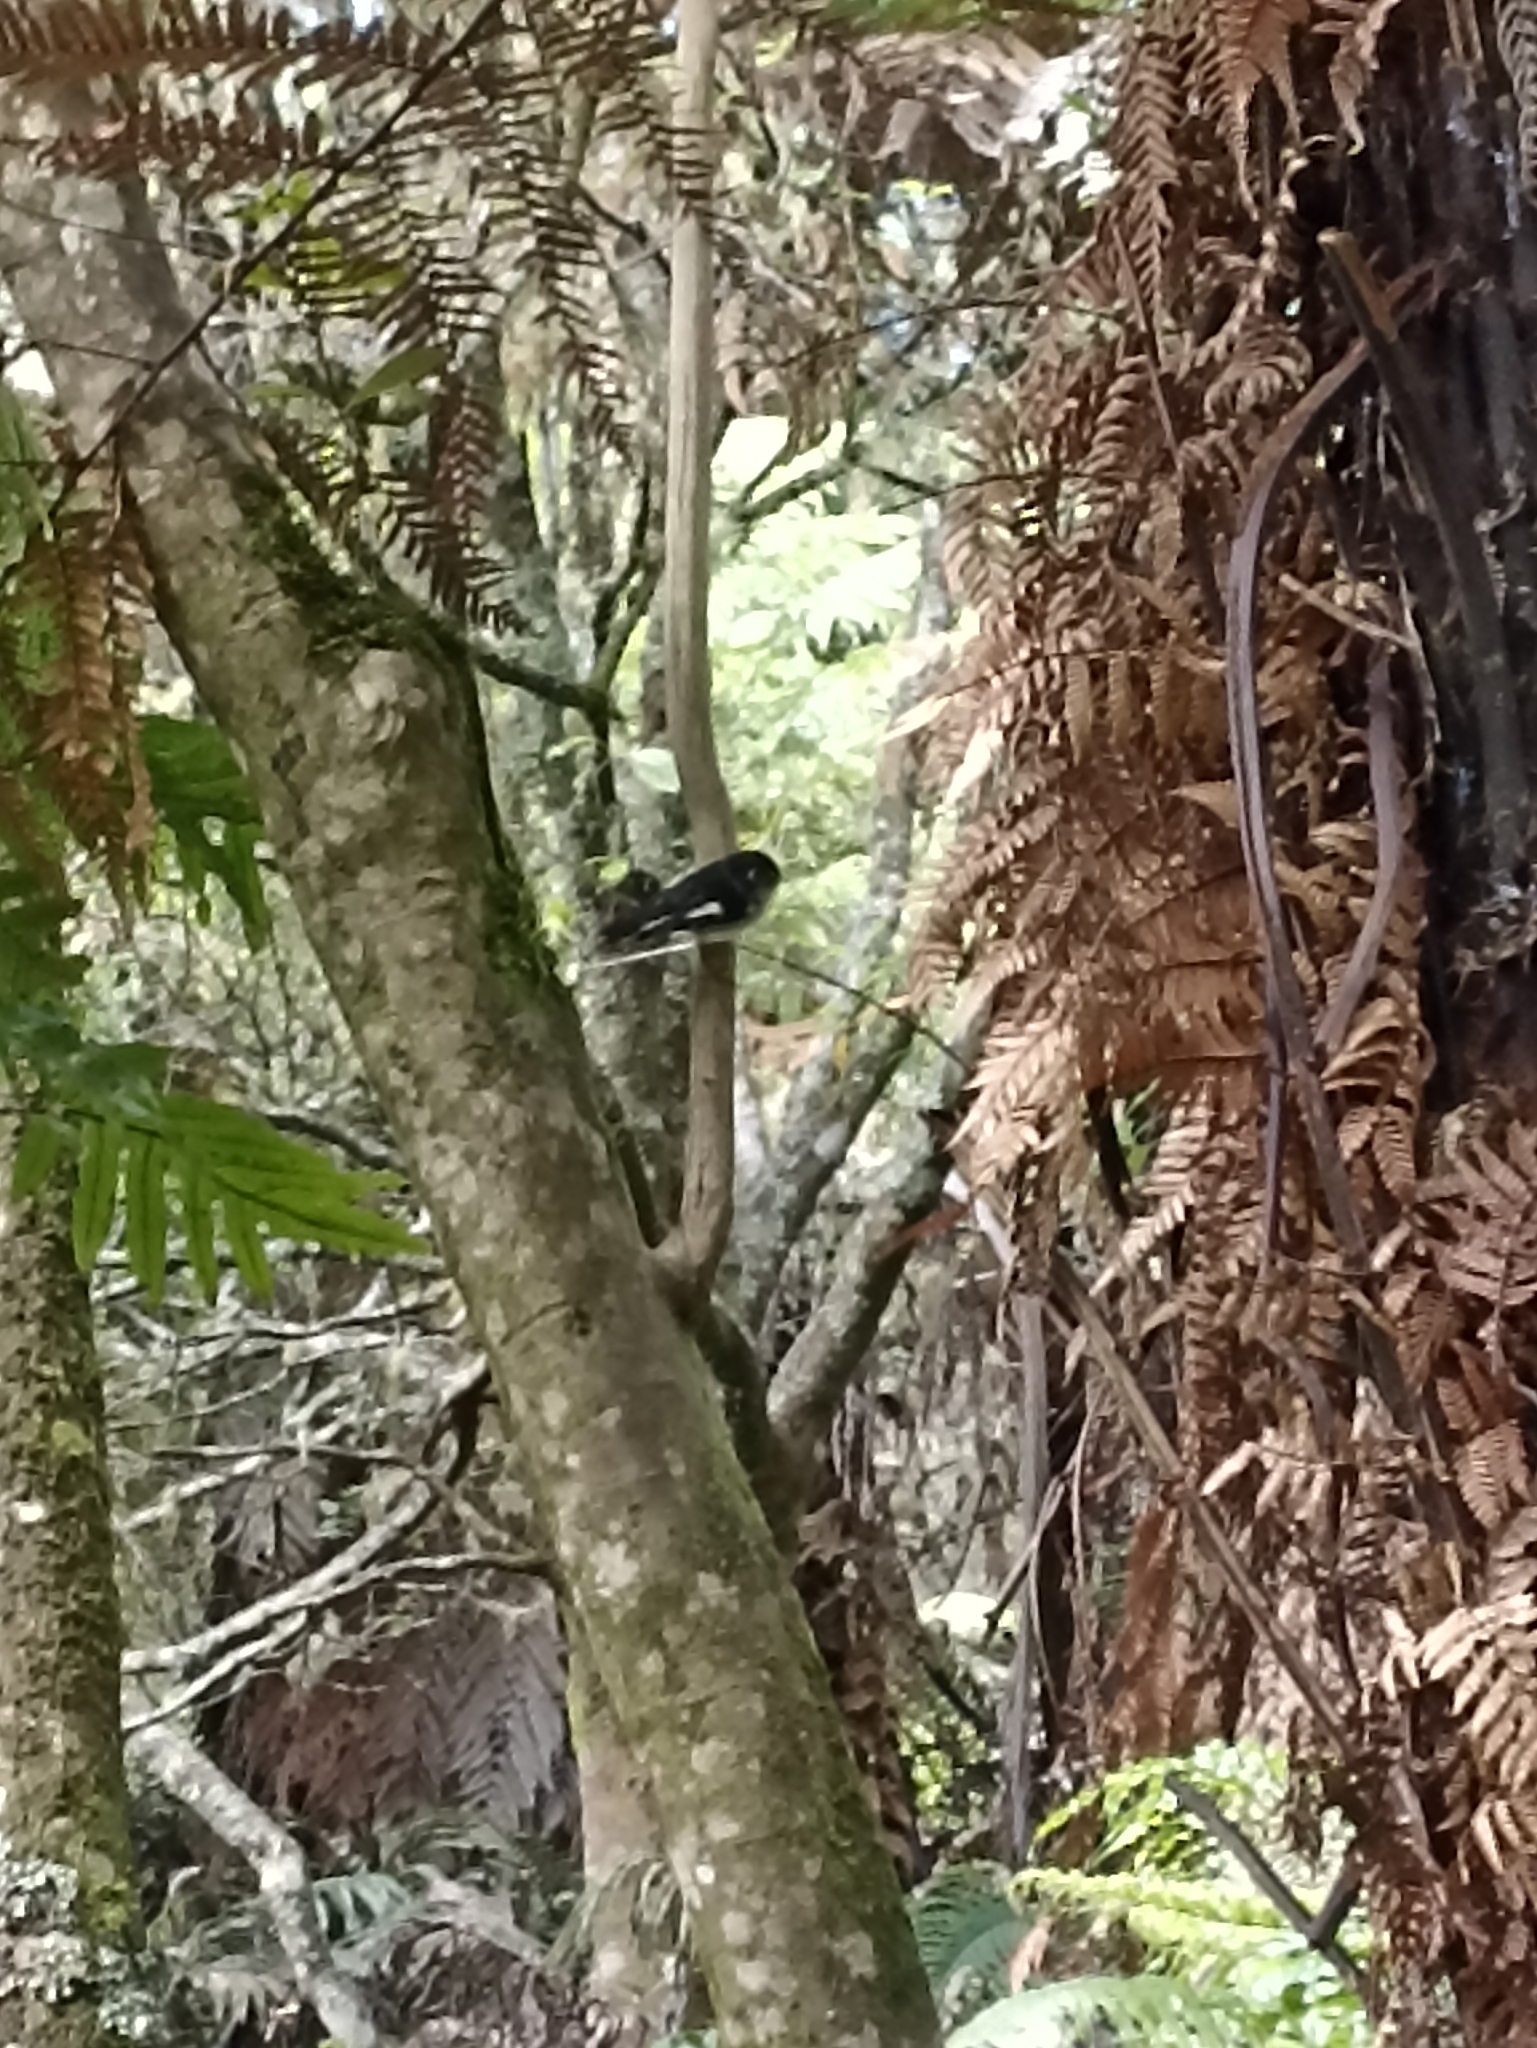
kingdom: Animalia
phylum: Chordata
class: Aves
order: Passeriformes
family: Petroicidae
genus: Petroica
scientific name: Petroica macrocephala
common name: Tomtit
